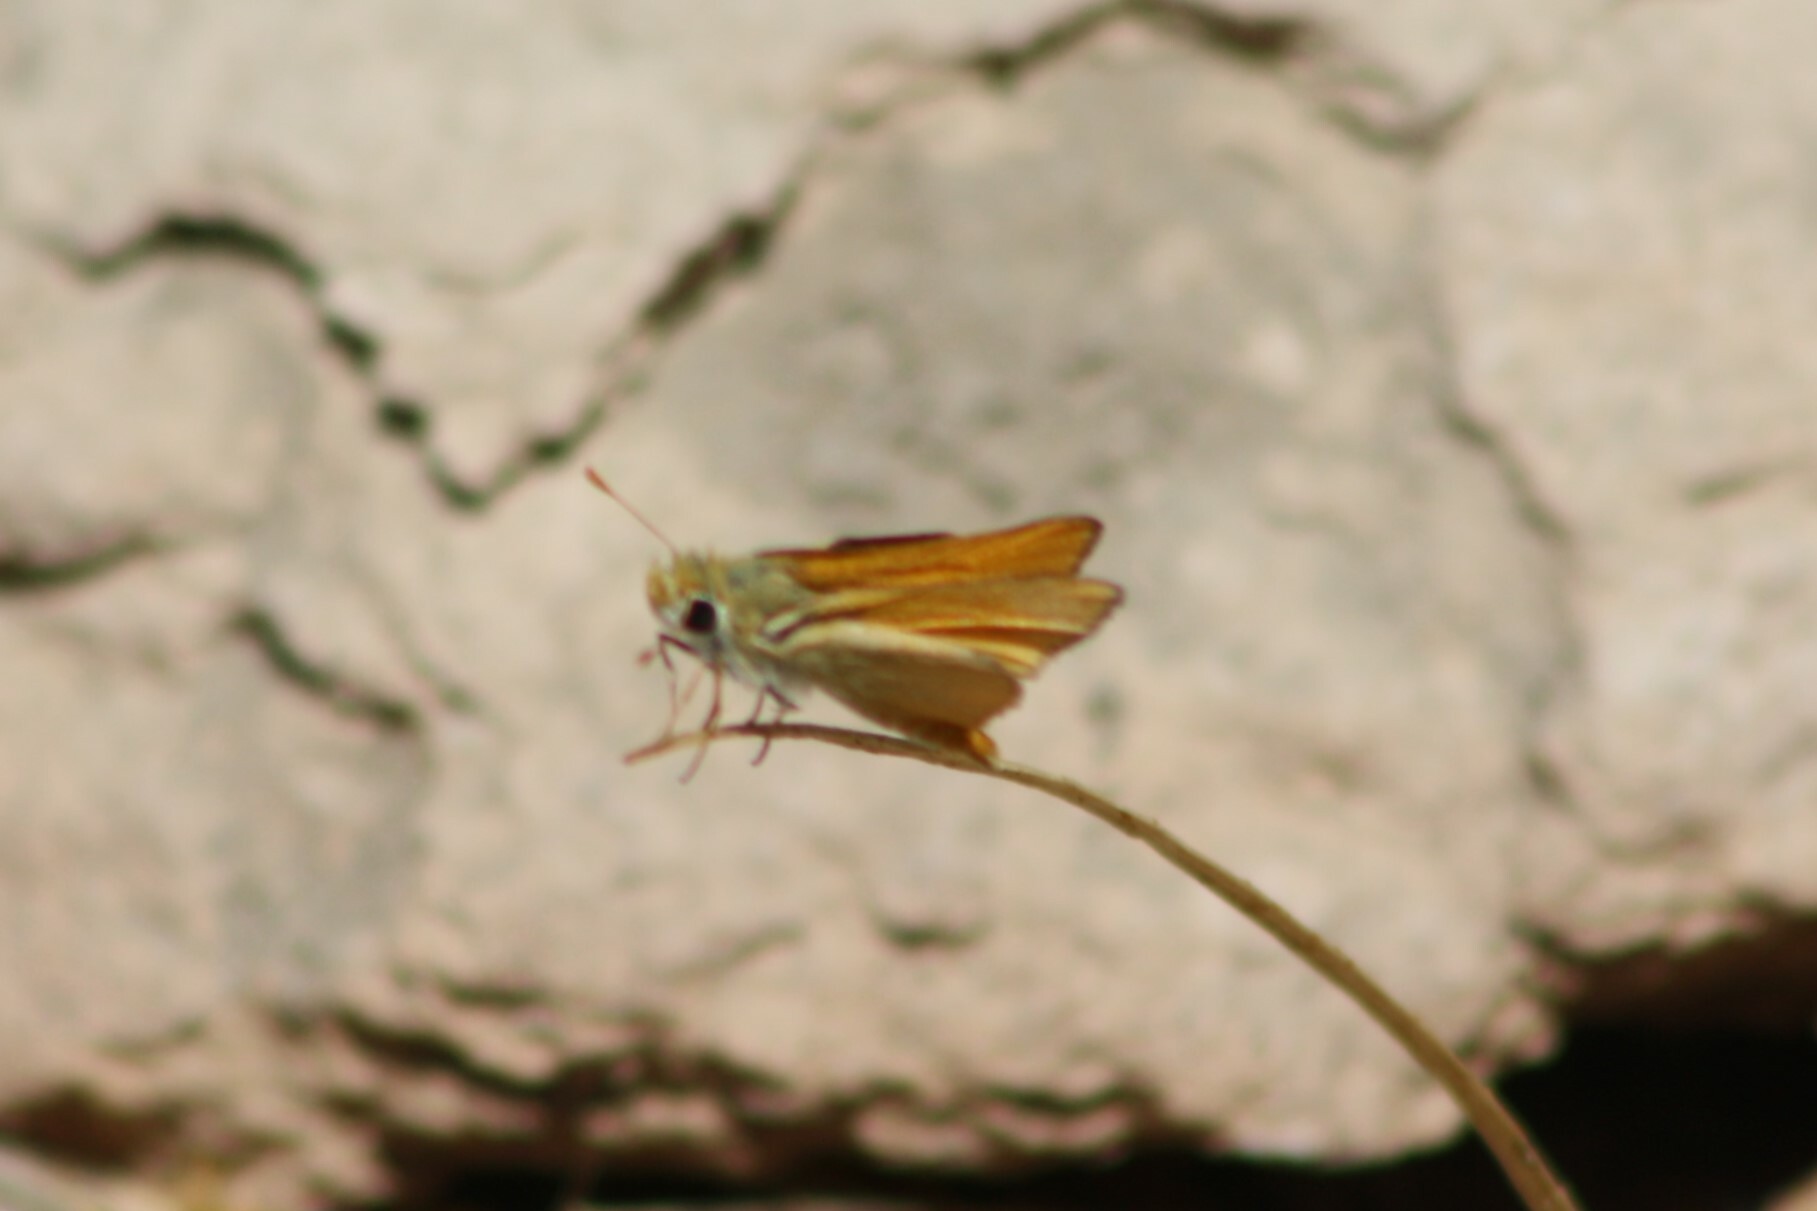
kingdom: Animalia
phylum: Arthropoda
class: Insecta
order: Lepidoptera
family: Hesperiidae
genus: Copaeodes
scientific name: Copaeodes aurantiaca
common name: Orange skipperling
